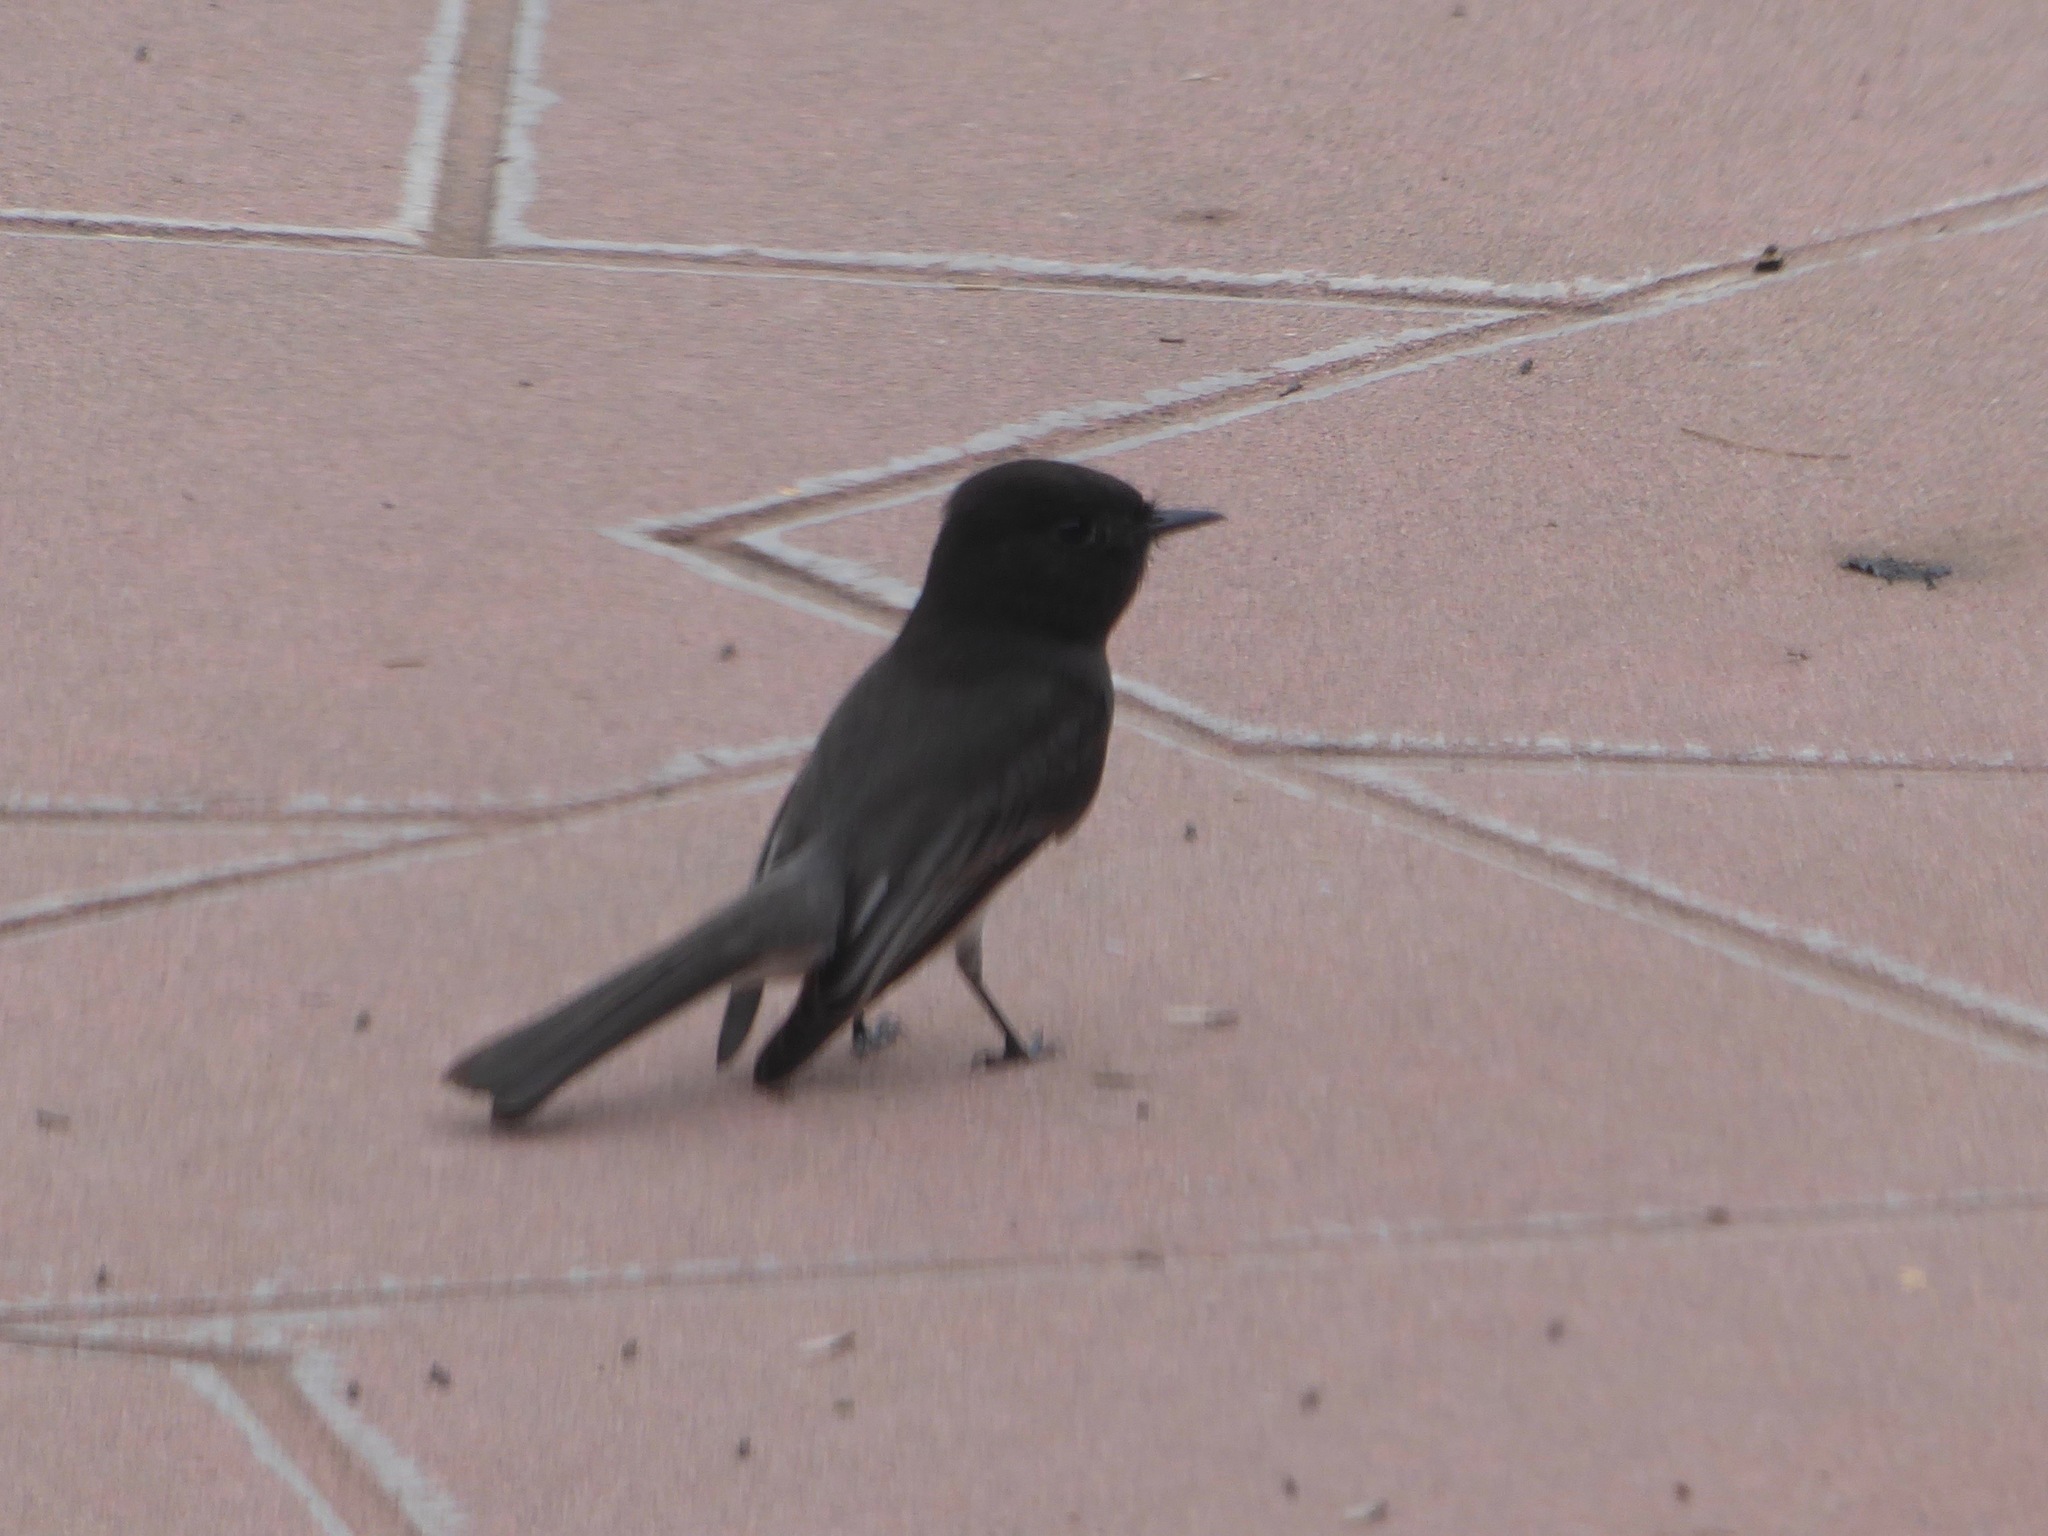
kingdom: Animalia
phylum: Chordata
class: Aves
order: Passeriformes
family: Tyrannidae
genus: Sayornis
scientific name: Sayornis nigricans
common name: Black phoebe
